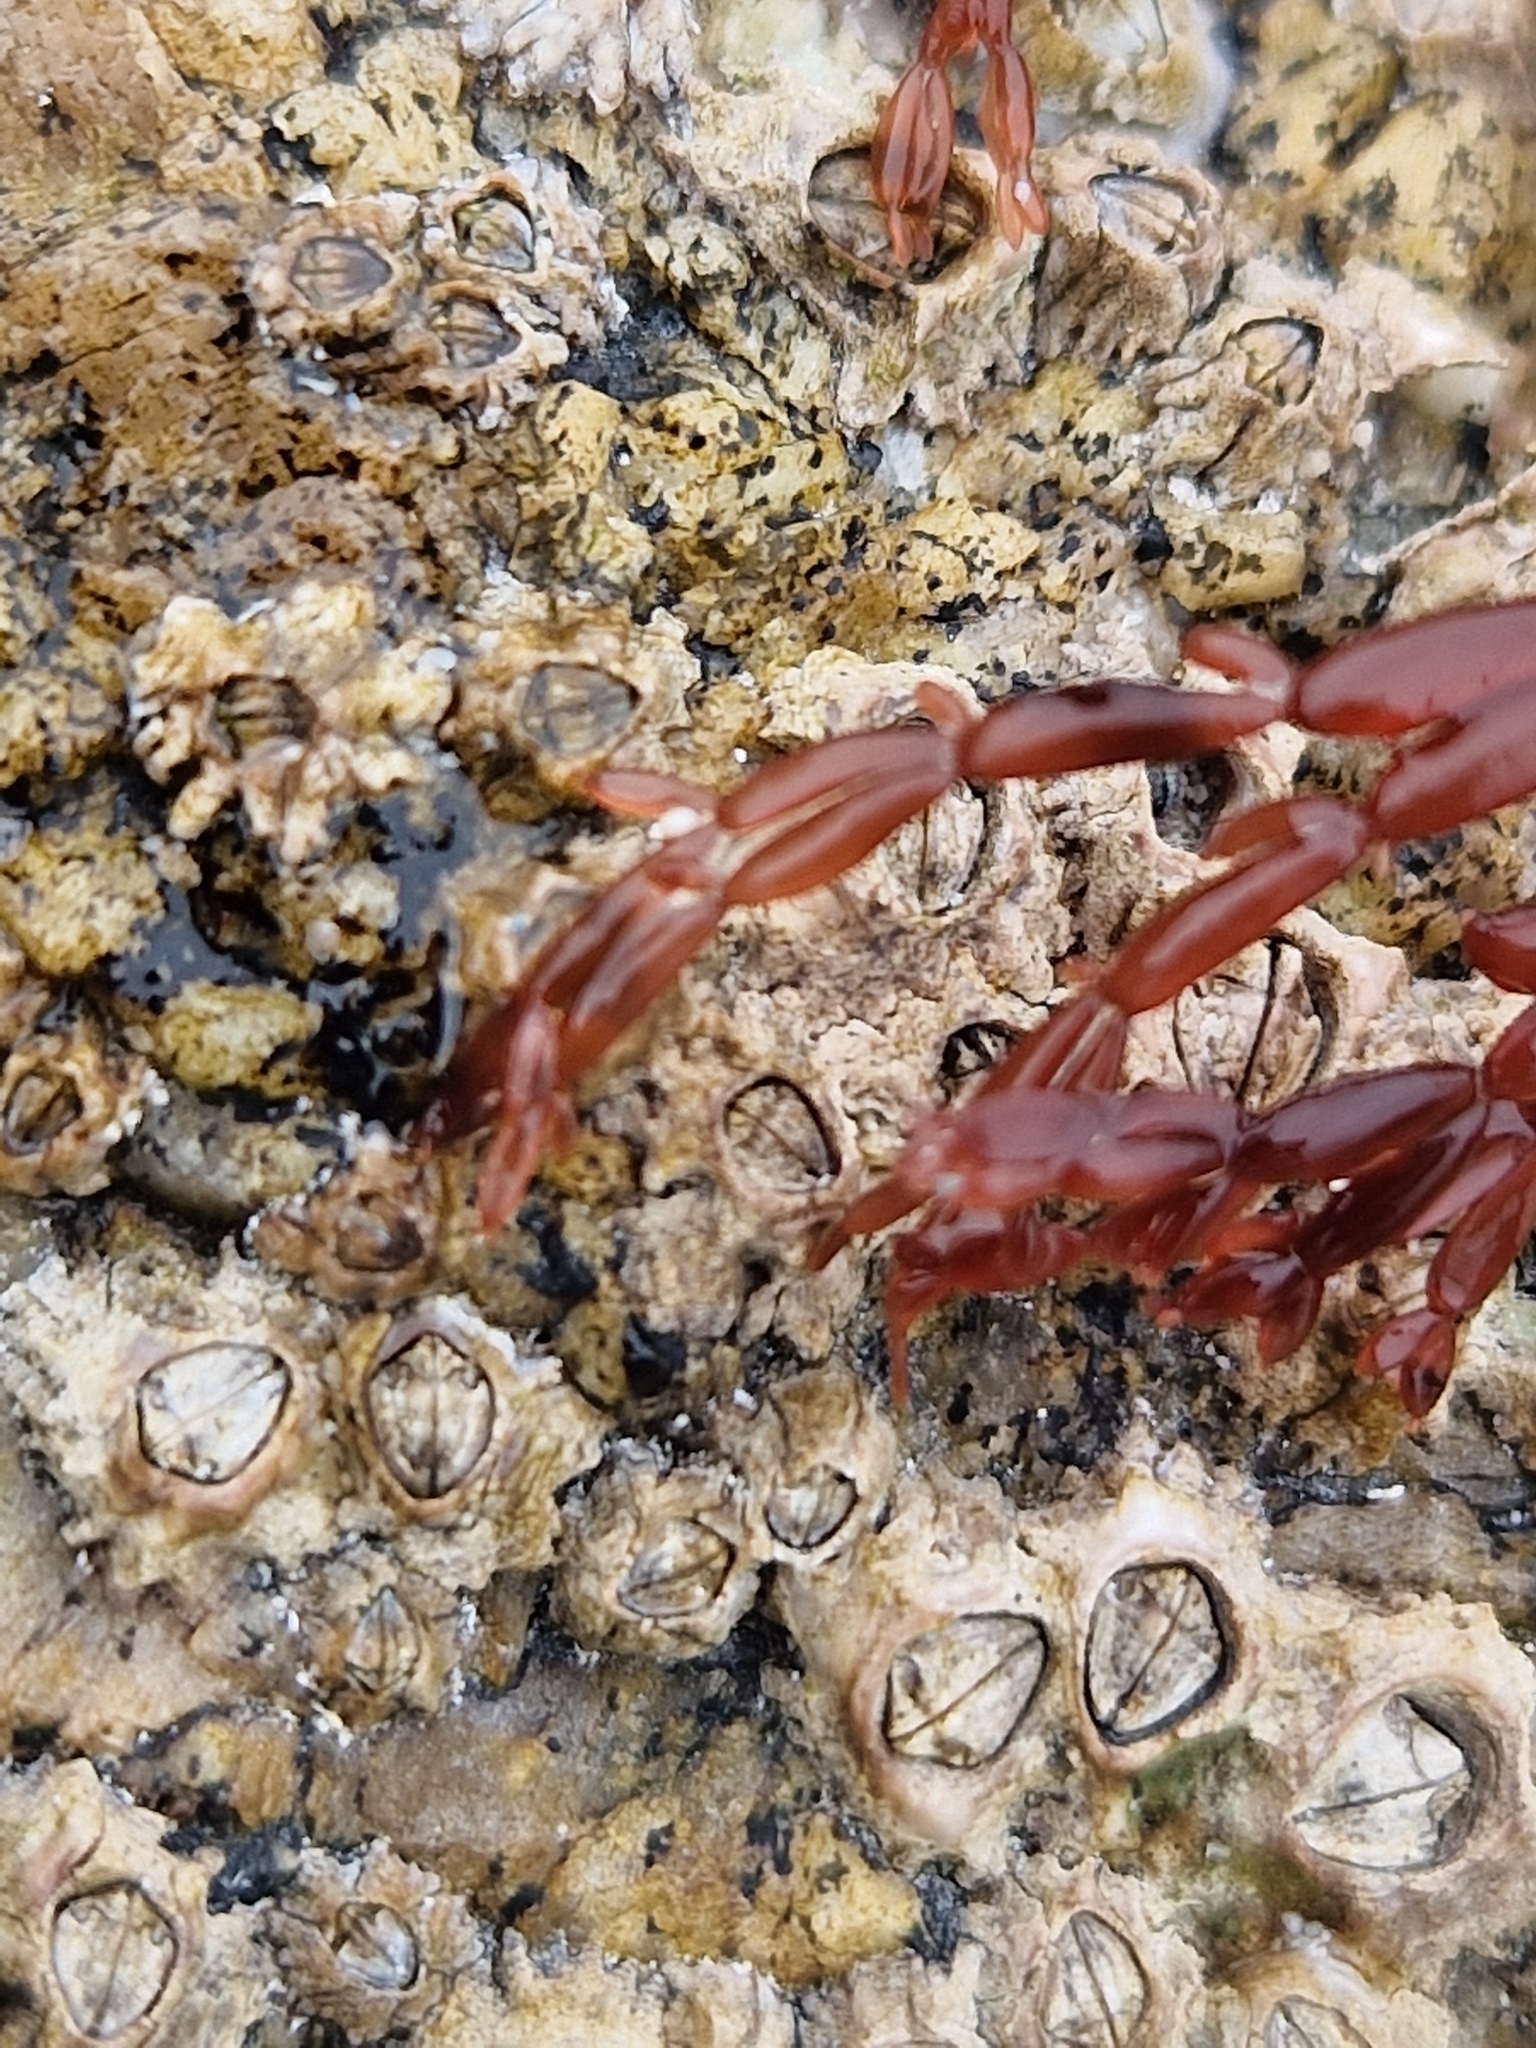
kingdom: Plantae
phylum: Rhodophyta
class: Florideophyceae
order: Rhodymeniales
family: Lomentariaceae
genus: Lomentaria
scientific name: Lomentaria articulata
